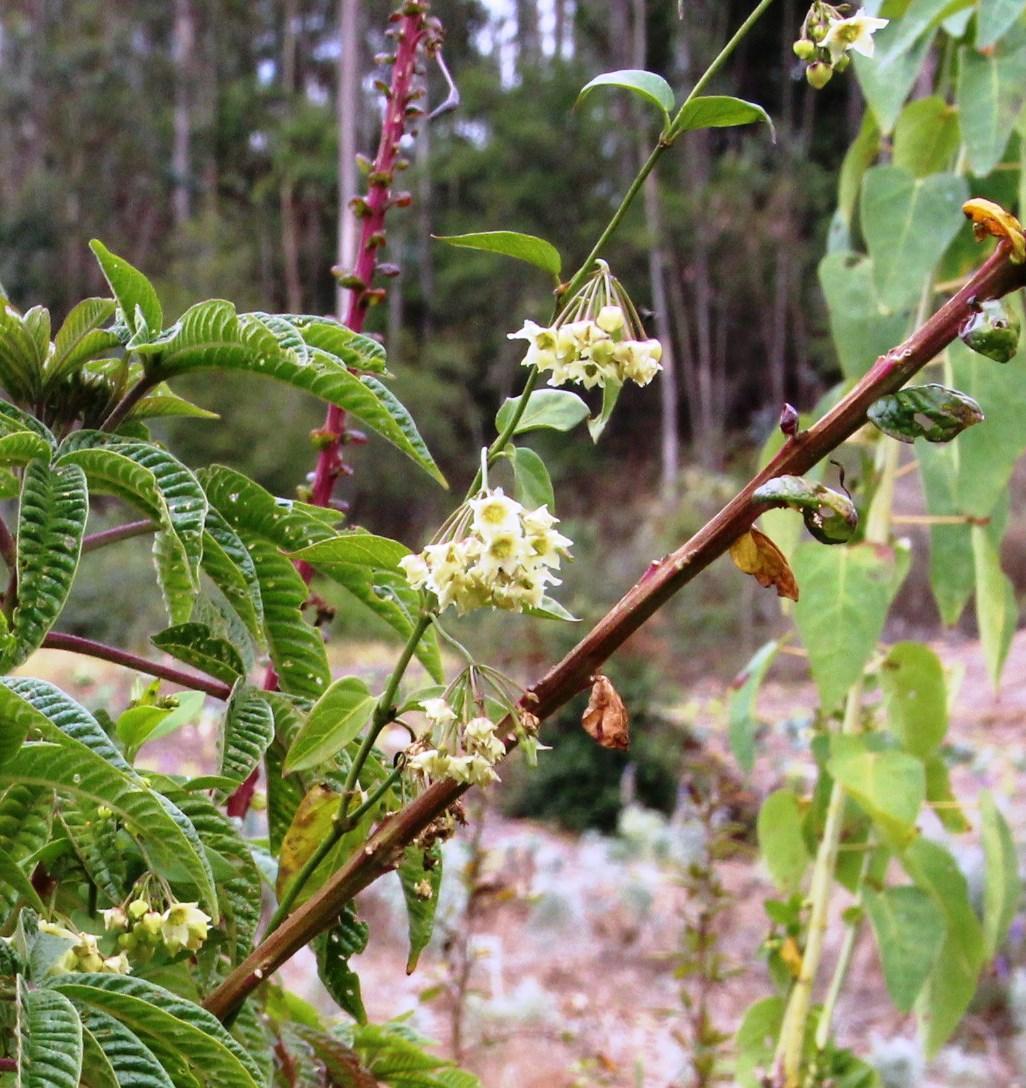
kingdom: Plantae
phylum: Tracheophyta
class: Magnoliopsida
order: Gentianales
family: Apocynaceae
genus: Jobinia
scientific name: Jobinia tarmensis
